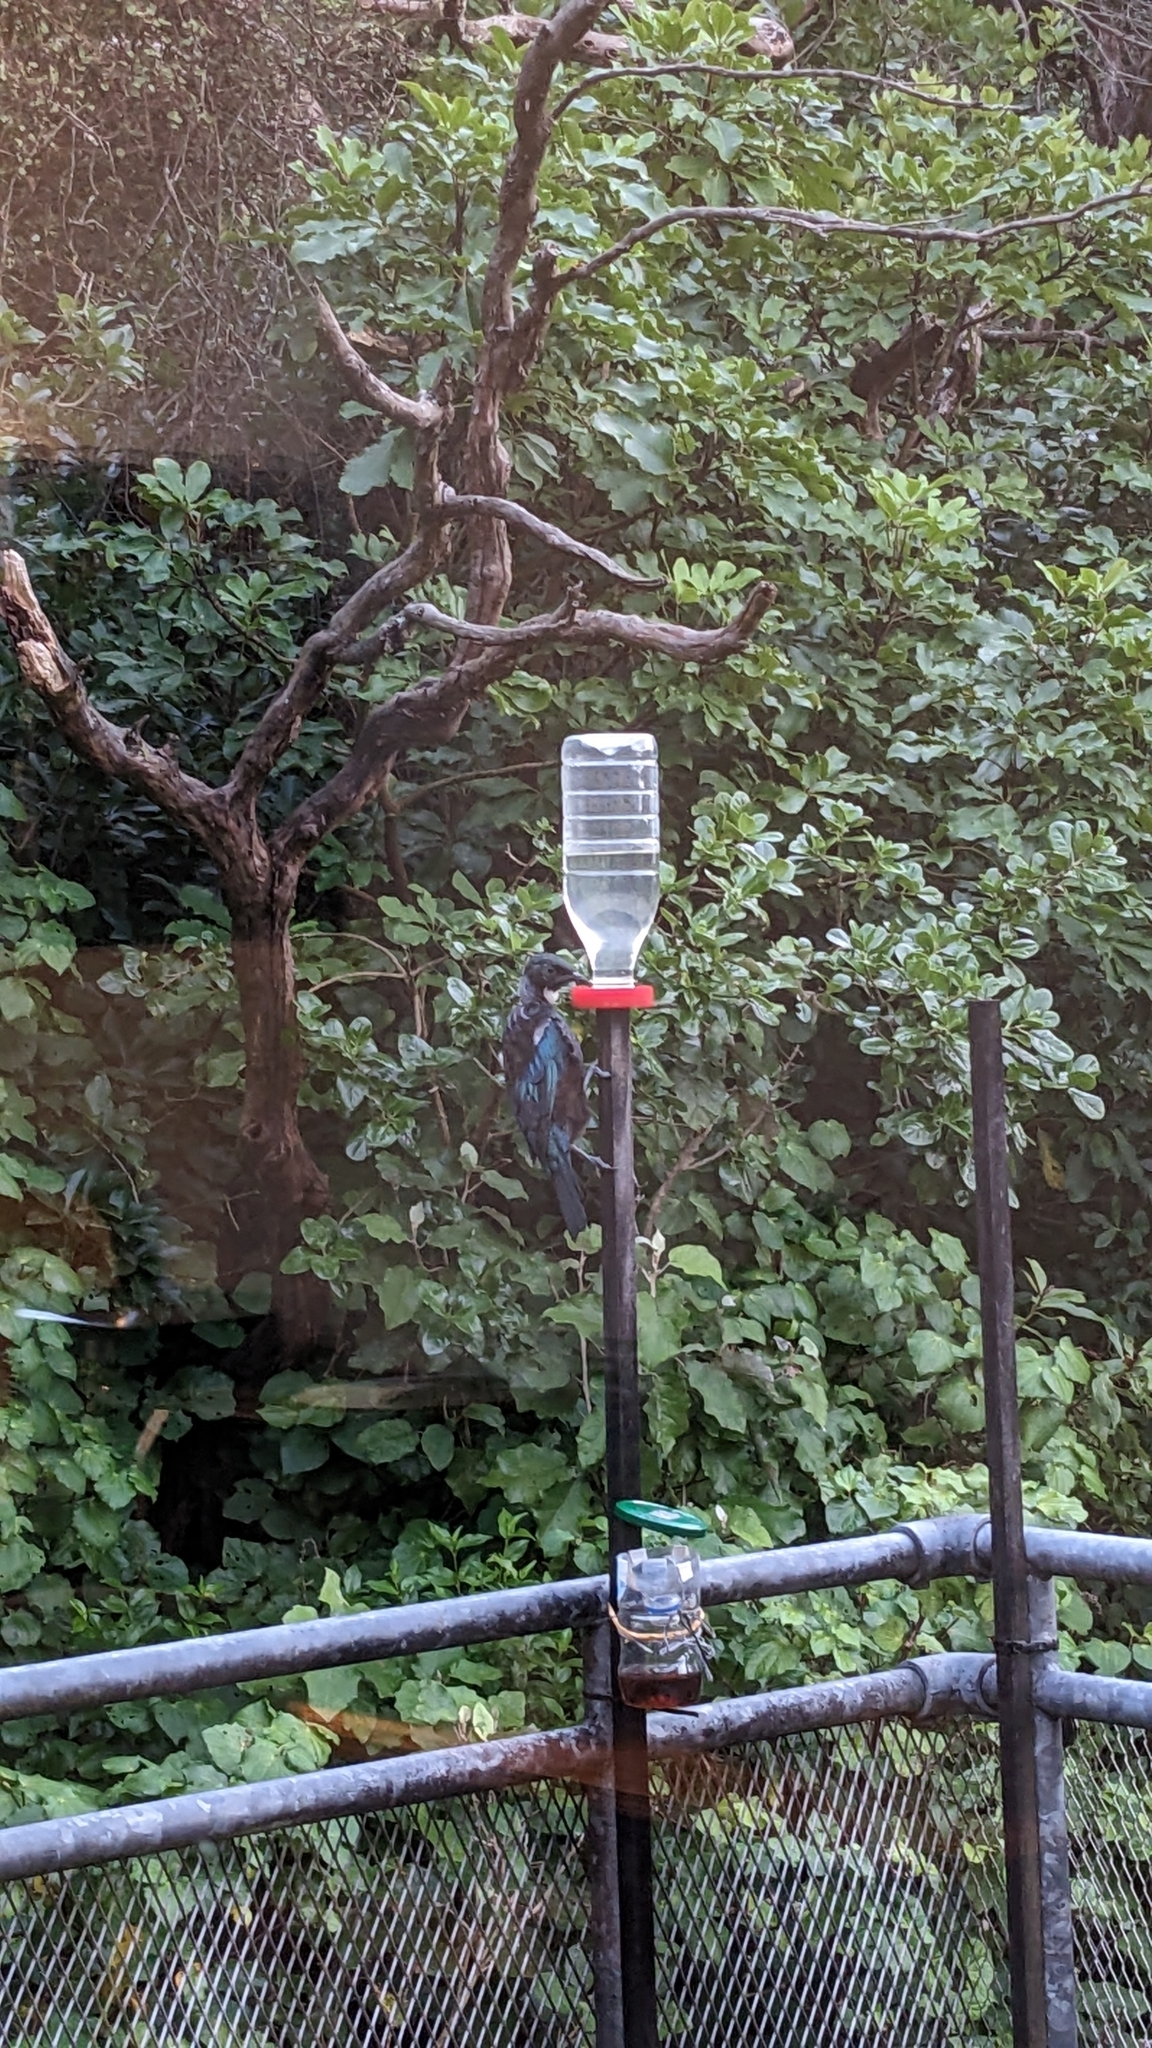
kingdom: Animalia
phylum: Chordata
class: Aves
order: Passeriformes
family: Meliphagidae
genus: Prosthemadera
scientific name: Prosthemadera novaeseelandiae
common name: Tui
